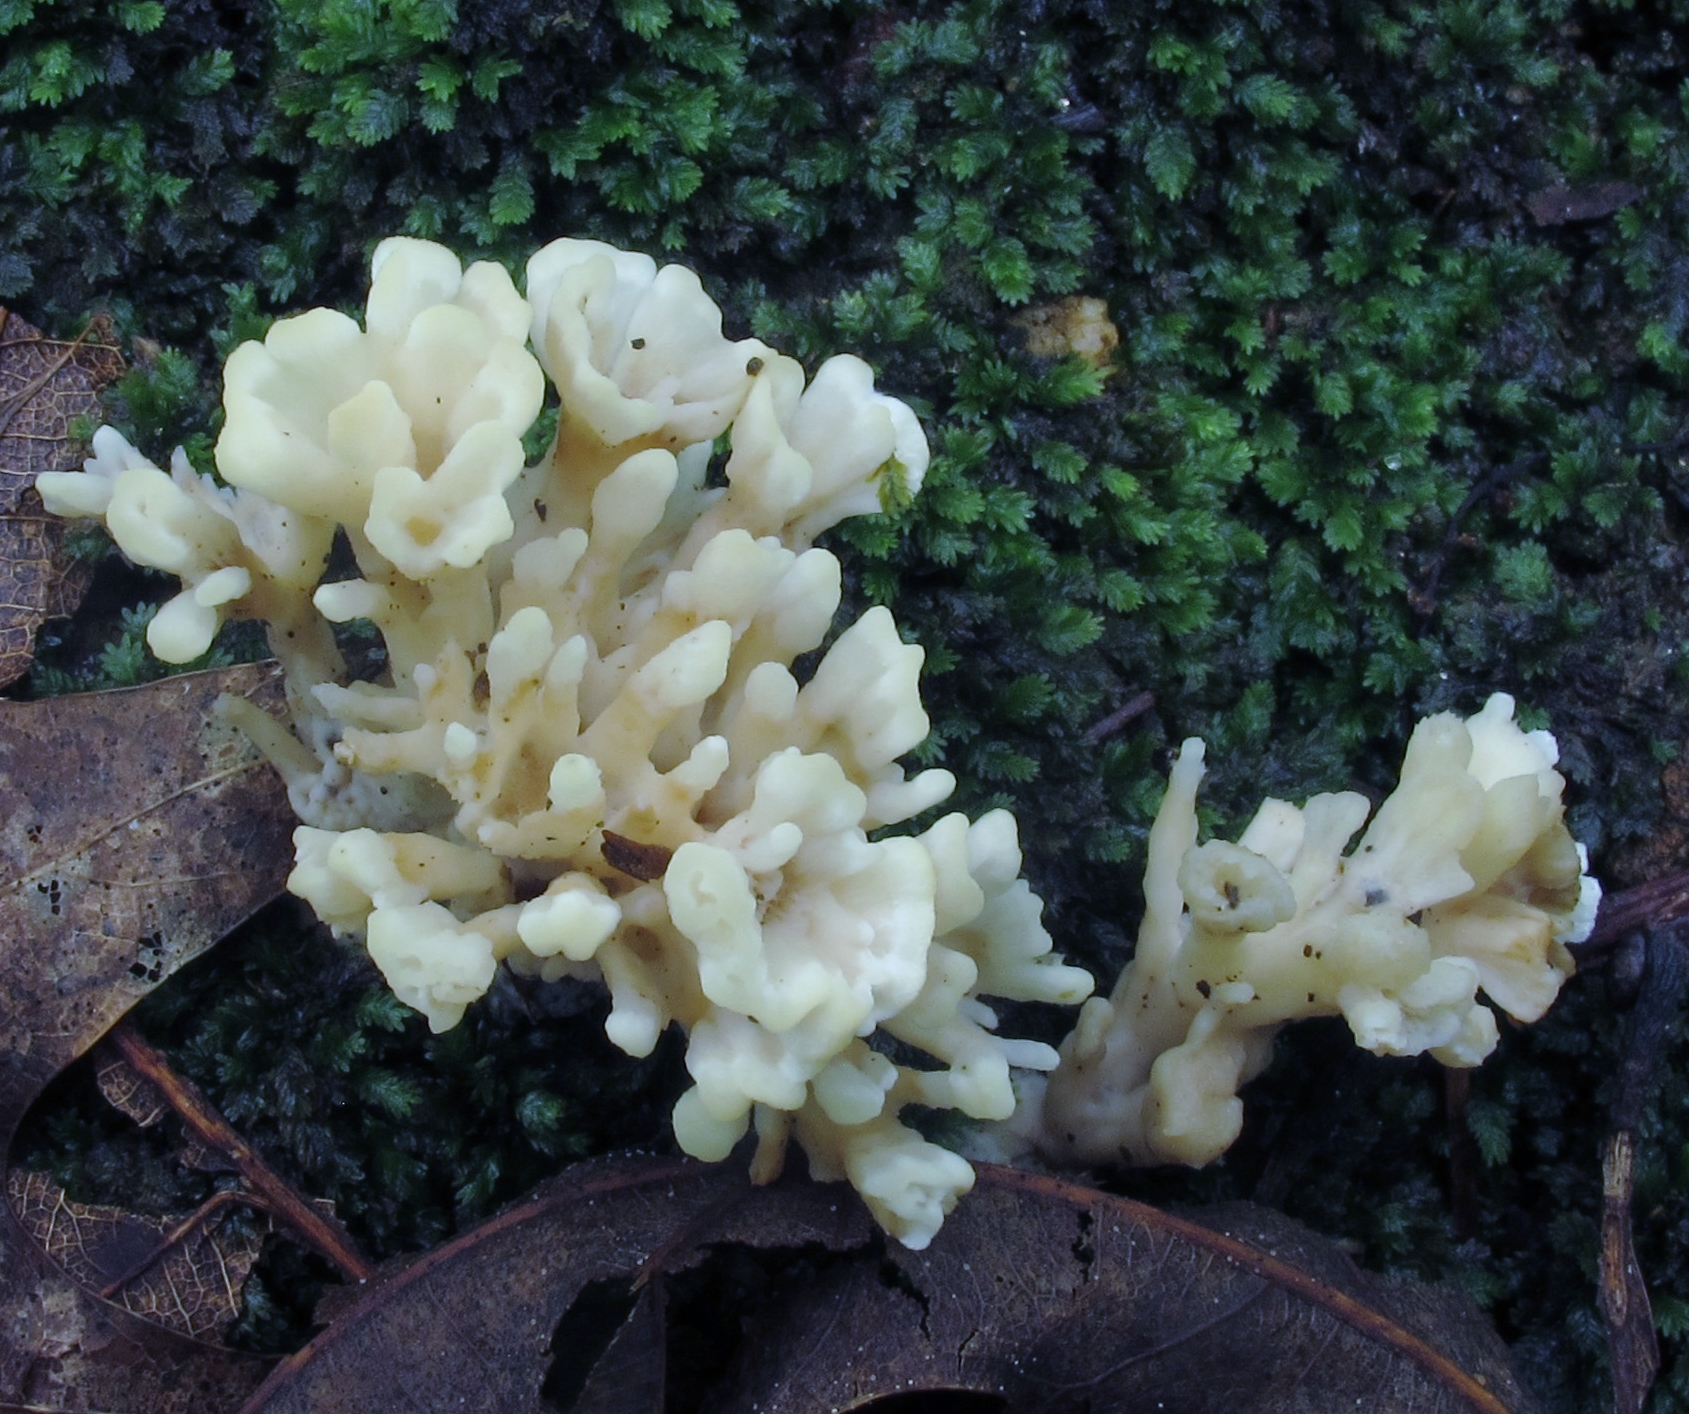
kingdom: Fungi
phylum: Basidiomycota
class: Agaricomycetes
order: Sebacinales
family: Sebacinaceae
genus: Sebacina
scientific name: Sebacina schweinitzii
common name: Jellied false coral fungus
